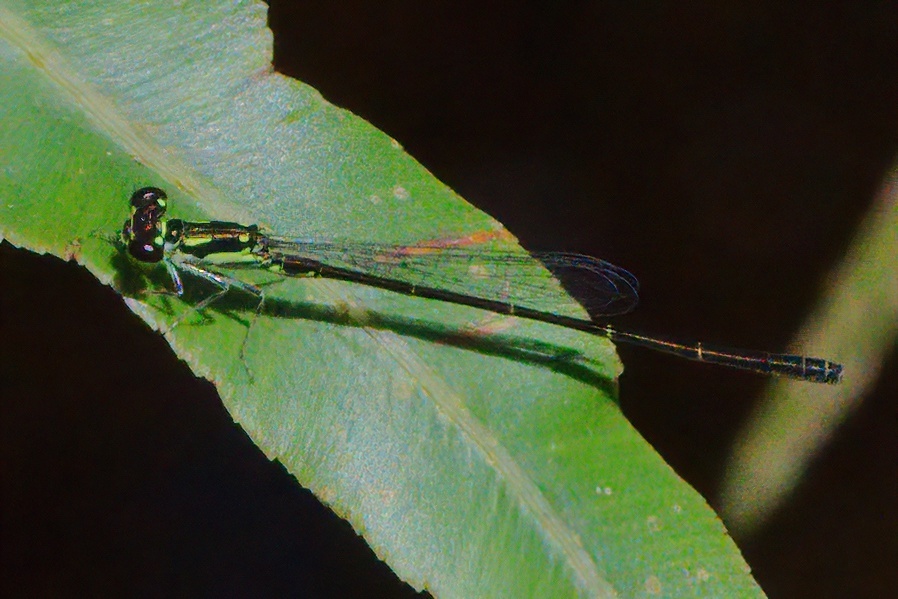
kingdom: Animalia
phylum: Arthropoda
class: Insecta
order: Odonata
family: Coenagrionidae
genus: Ischnura
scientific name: Ischnura posita
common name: Fragile forktail
